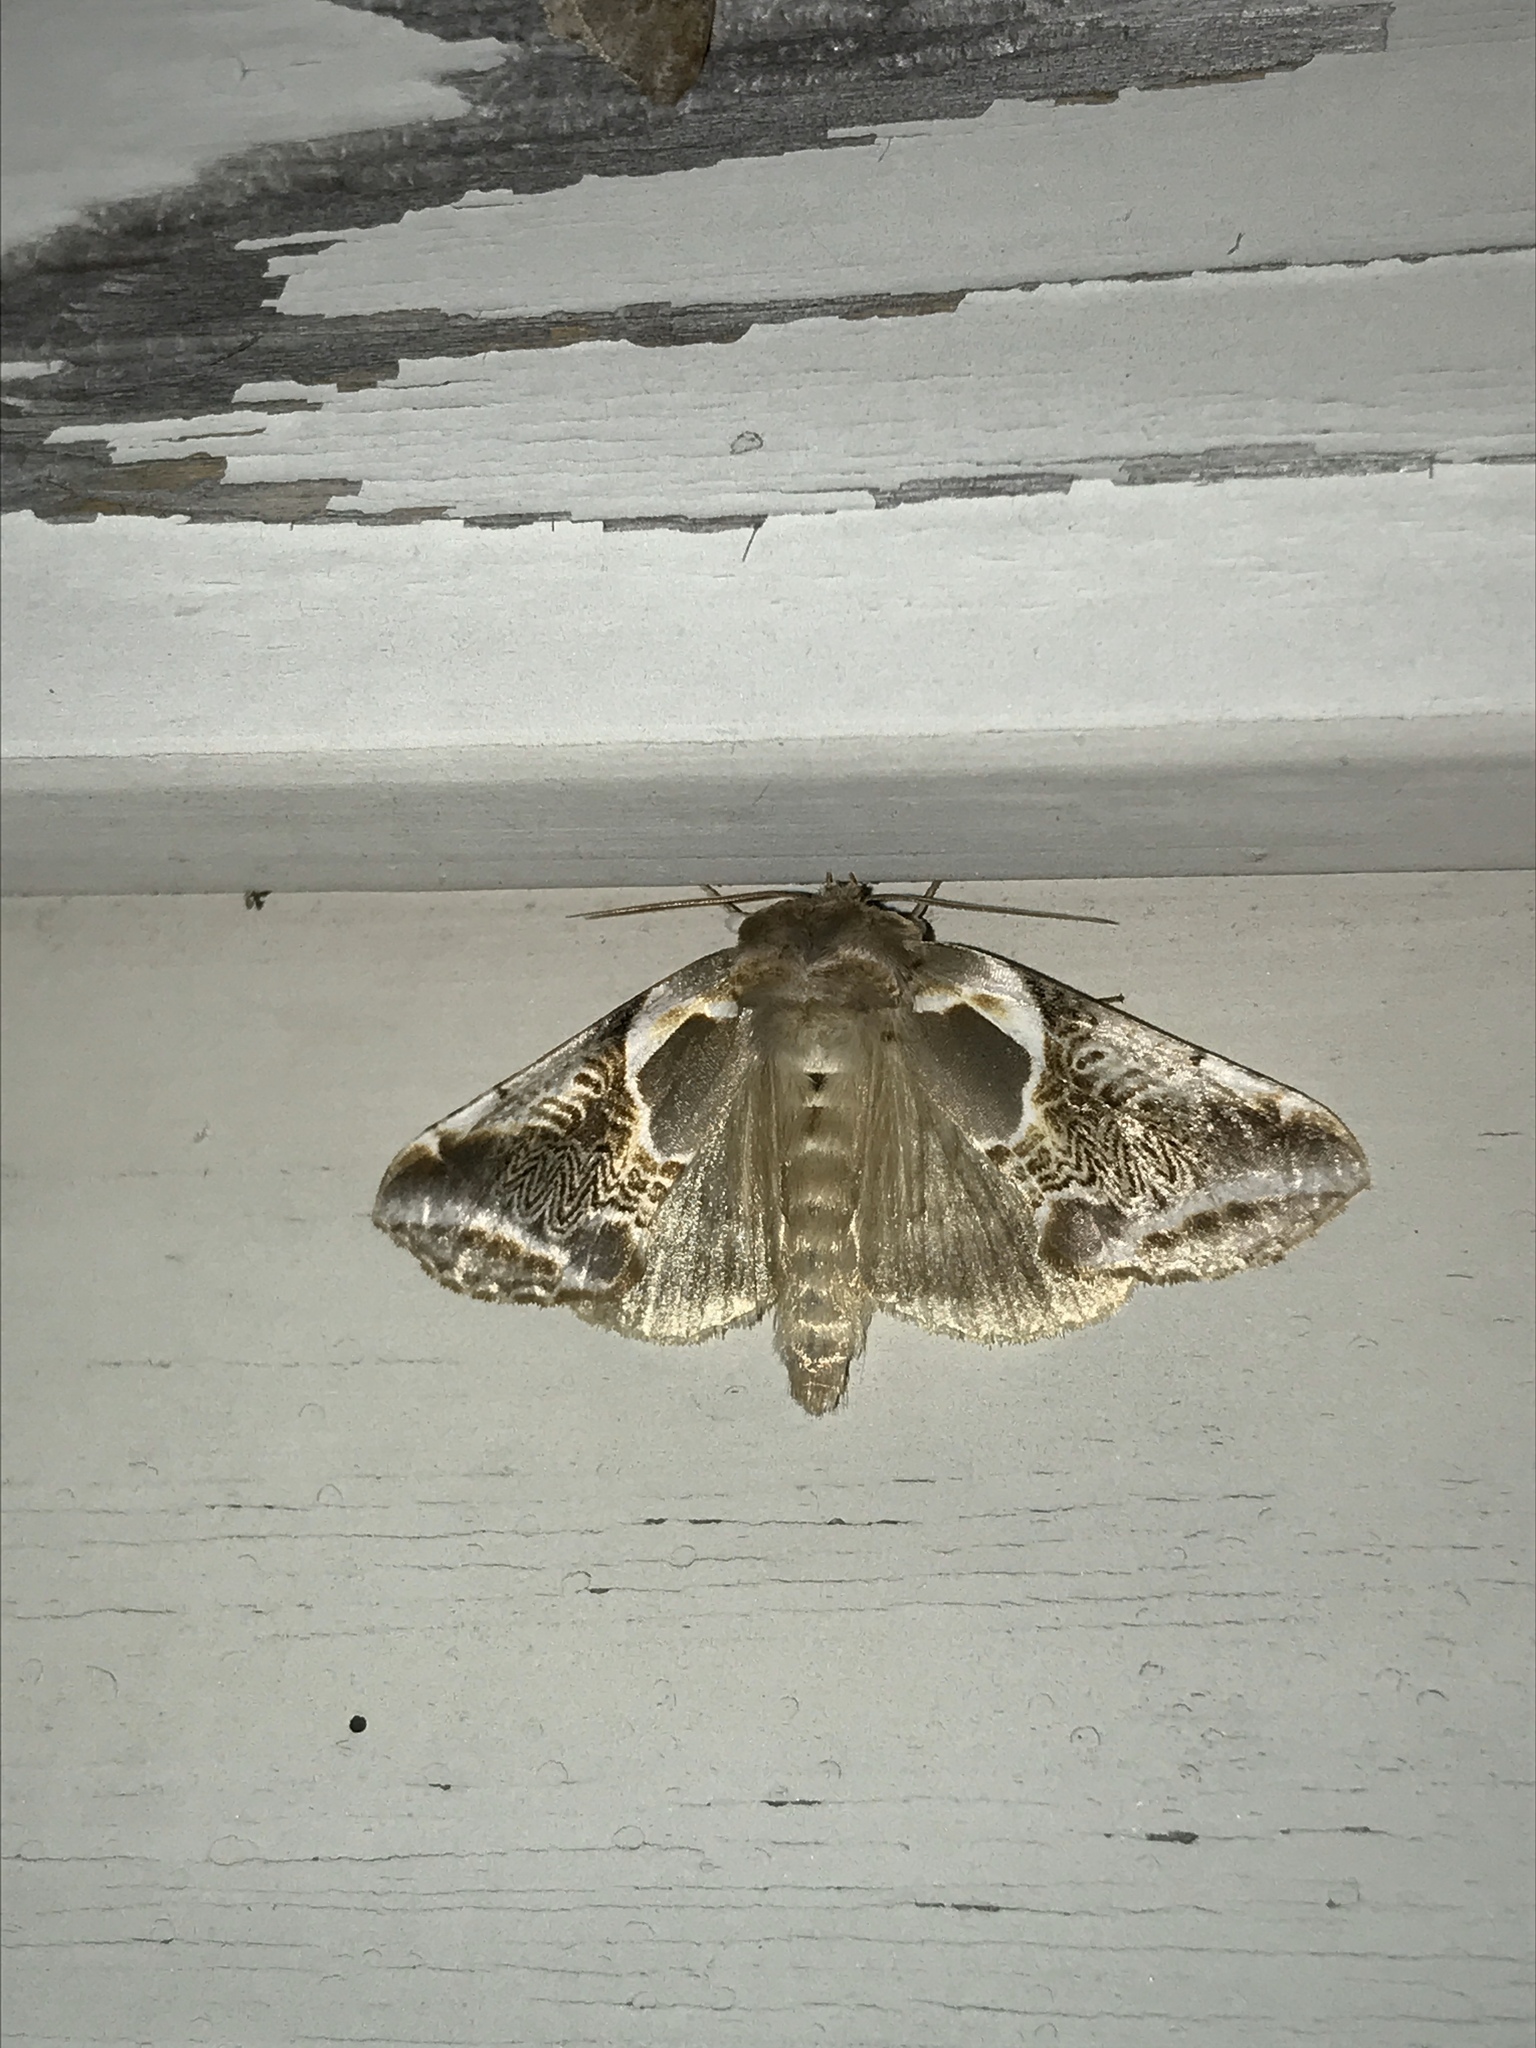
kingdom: Animalia
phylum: Arthropoda
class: Insecta
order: Lepidoptera
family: Drepanidae
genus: Habrosyne
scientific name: Habrosyne scripta
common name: Lettered habrosyne moth
